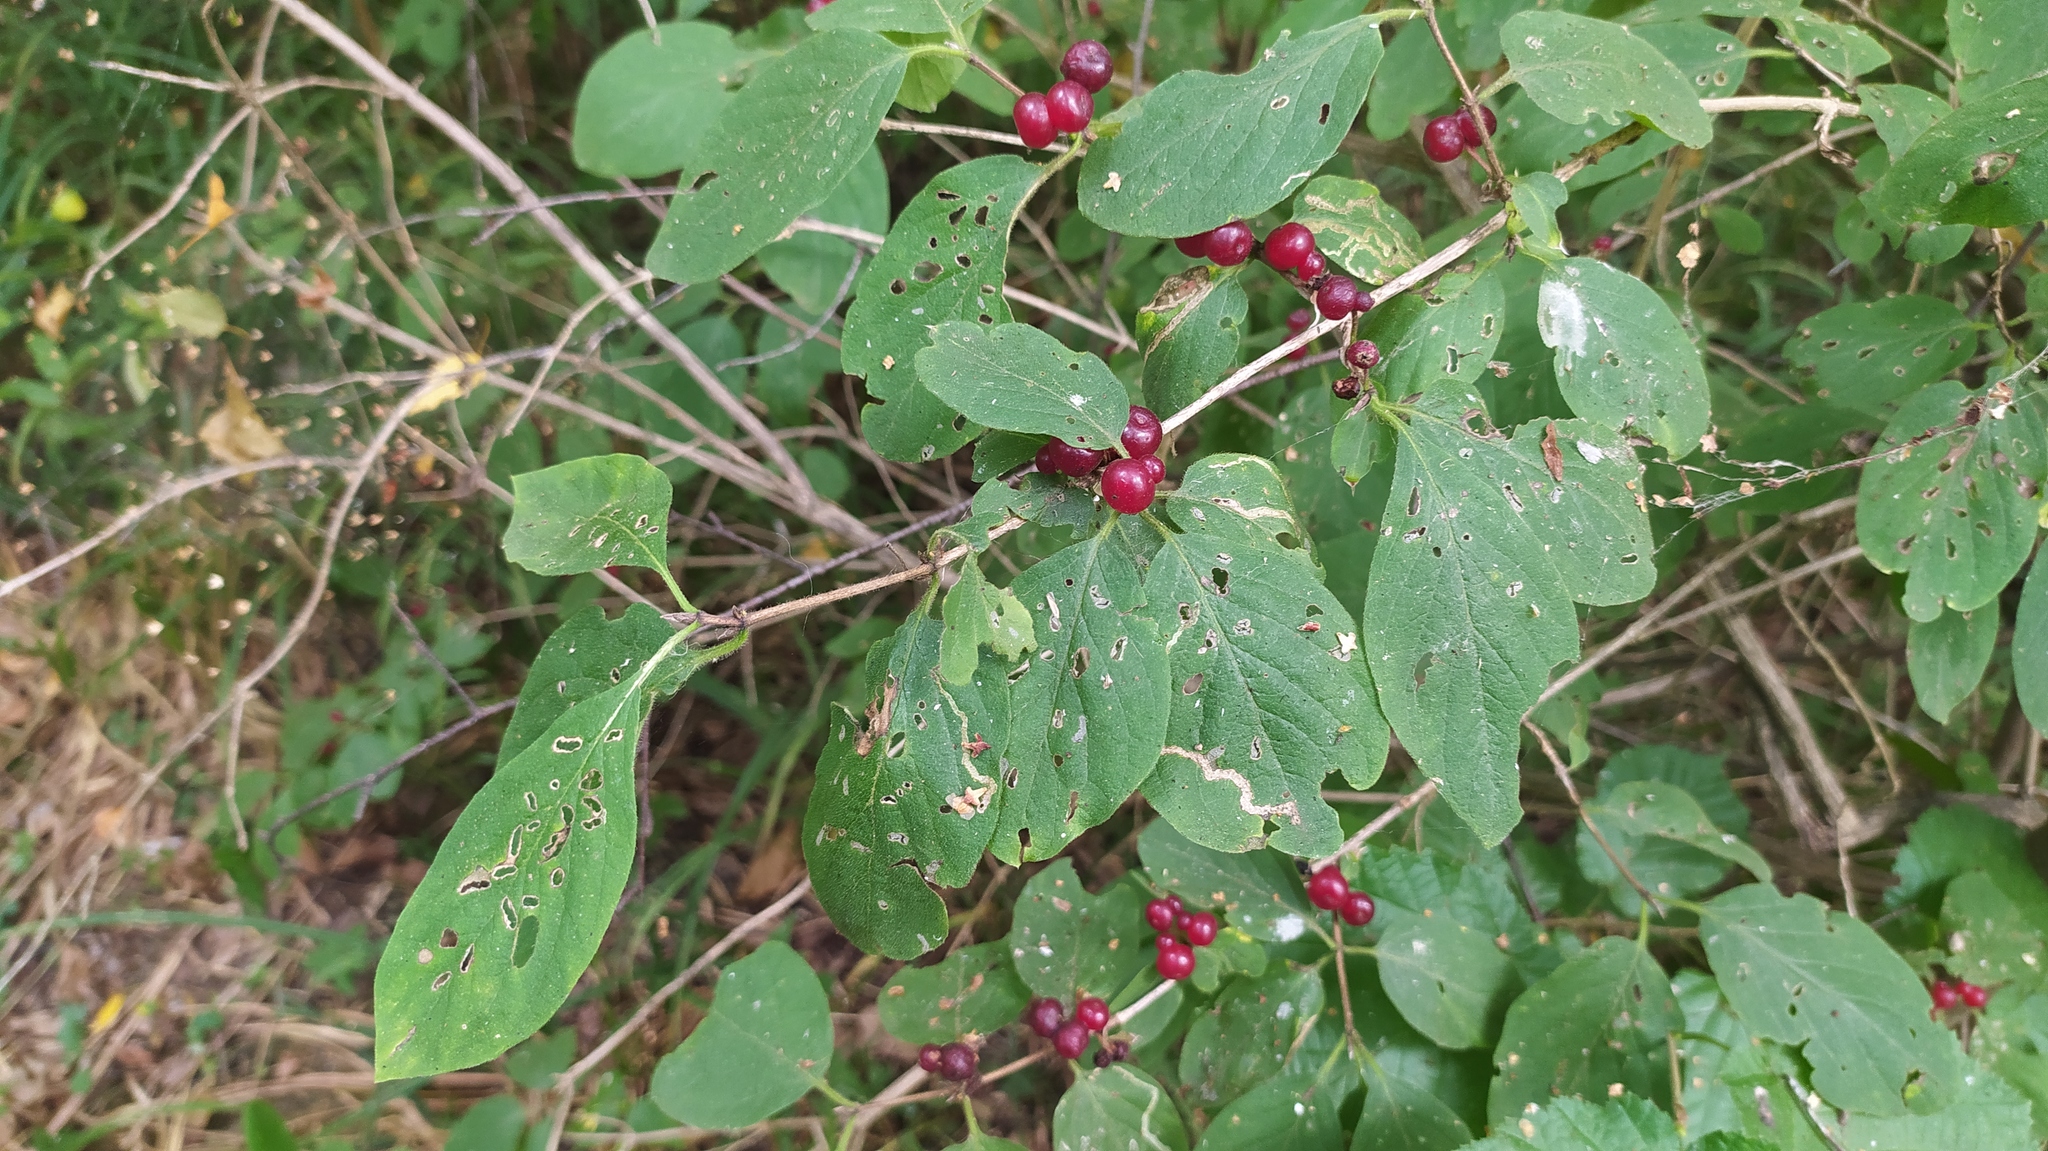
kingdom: Plantae
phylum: Tracheophyta
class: Magnoliopsida
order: Dipsacales
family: Caprifoliaceae
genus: Lonicera
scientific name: Lonicera xylosteum
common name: Fly honeysuckle
